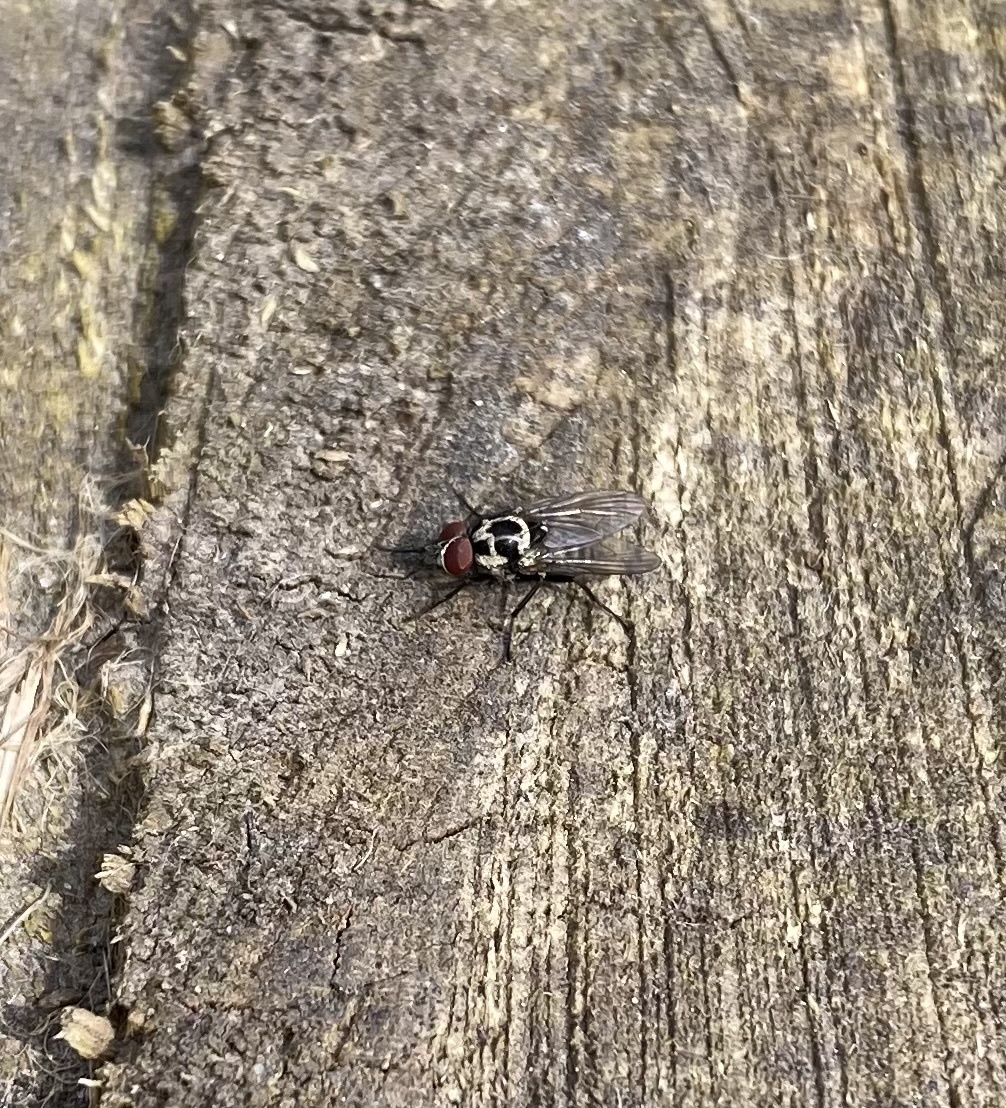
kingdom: Animalia
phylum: Arthropoda
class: Insecta
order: Diptera
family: Anthomyiidae
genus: Anthomyia
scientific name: Anthomyia
